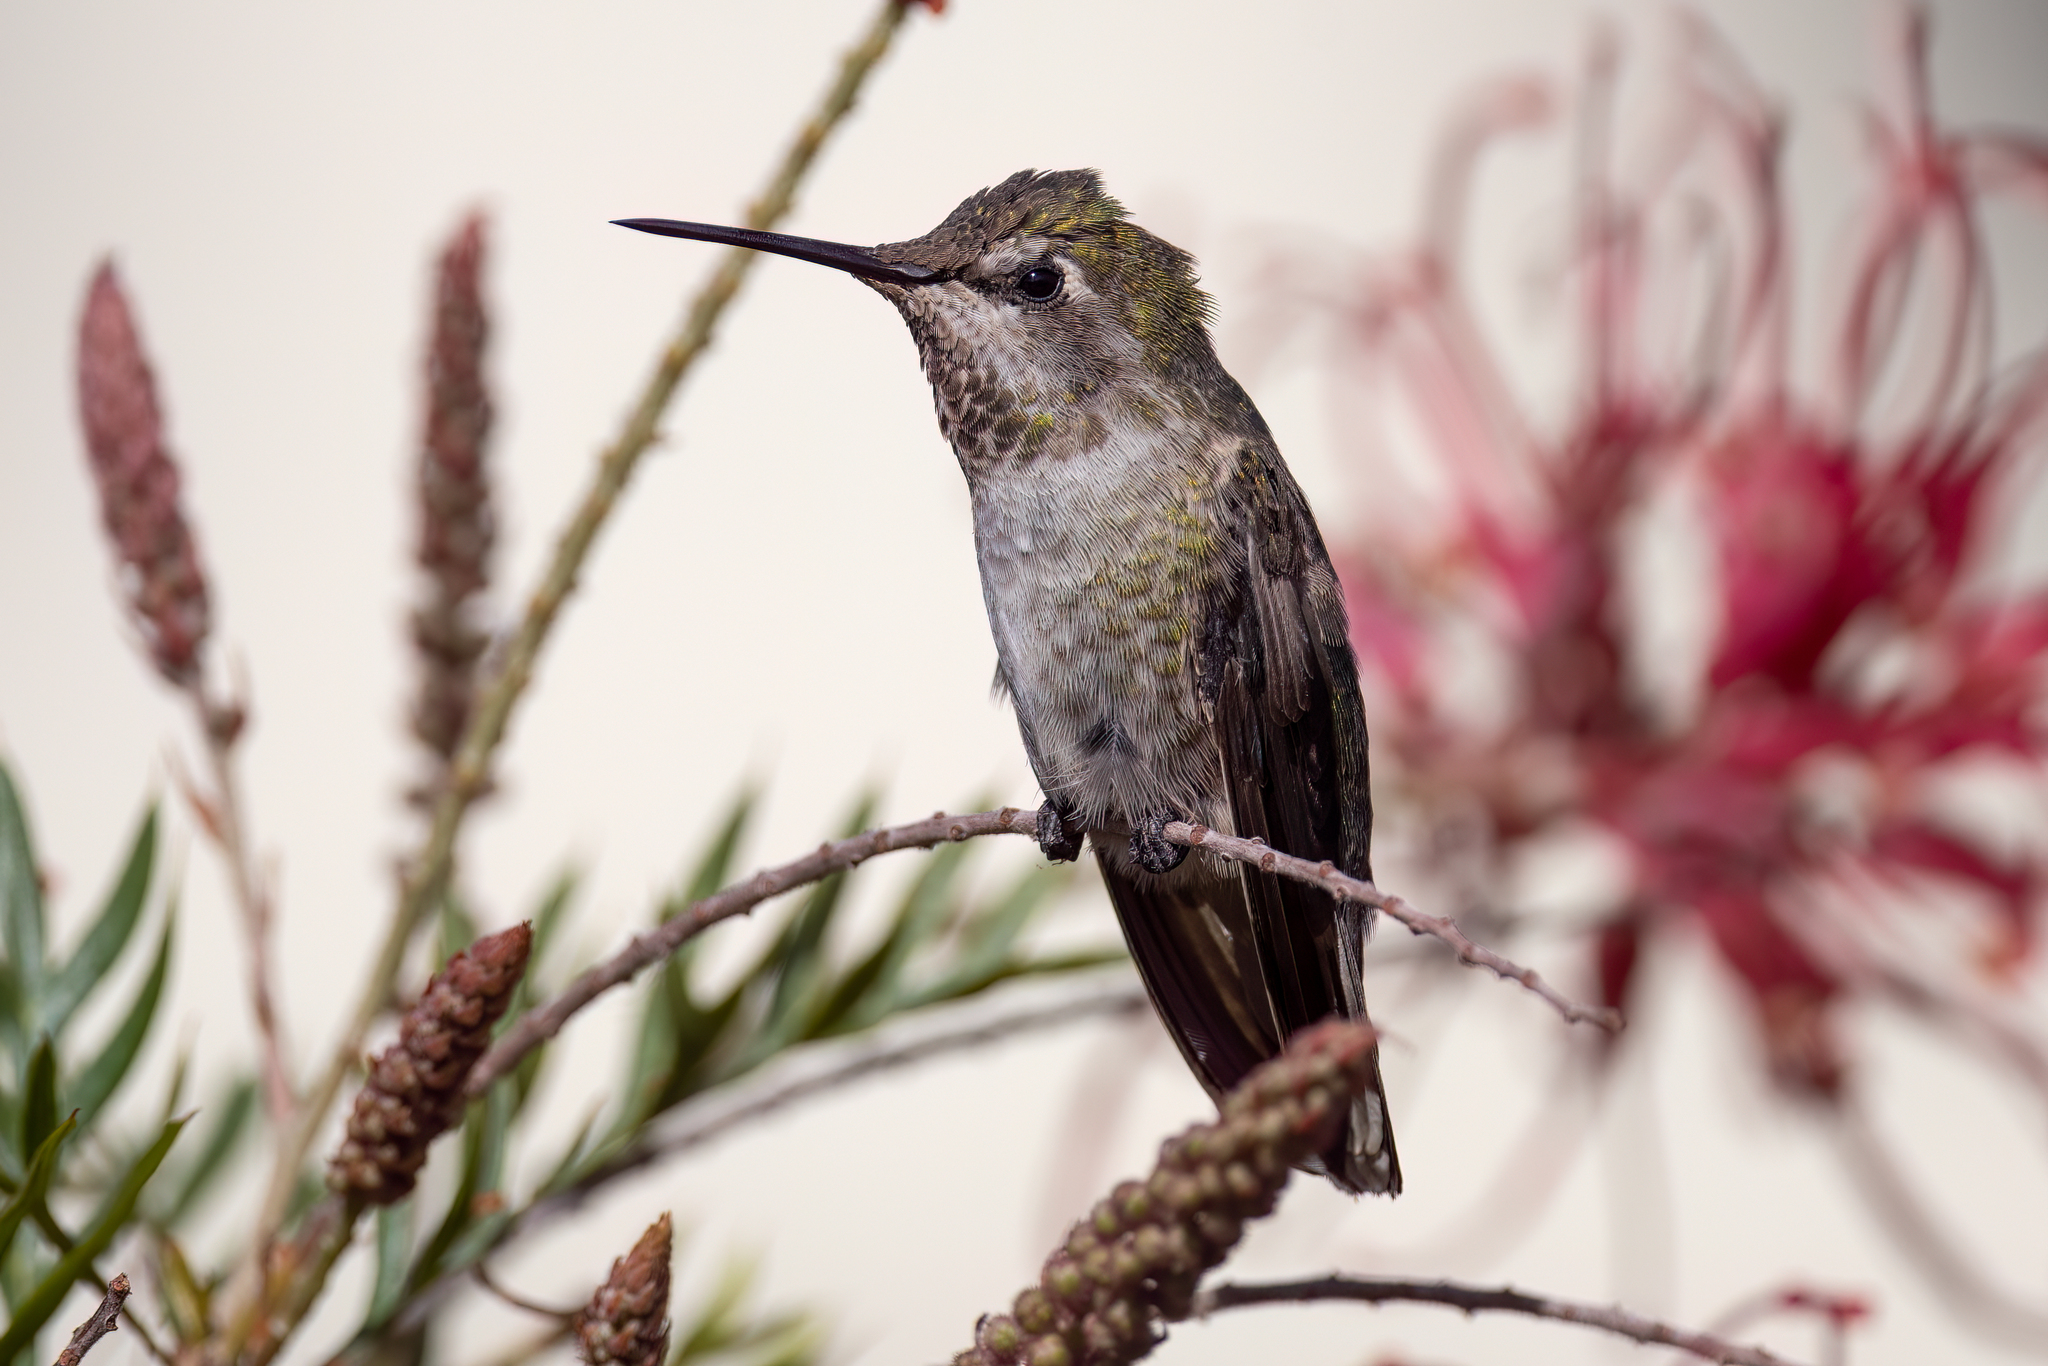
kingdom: Animalia
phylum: Chordata
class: Aves
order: Apodiformes
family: Trochilidae
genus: Calypte
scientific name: Calypte anna
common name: Anna's hummingbird
